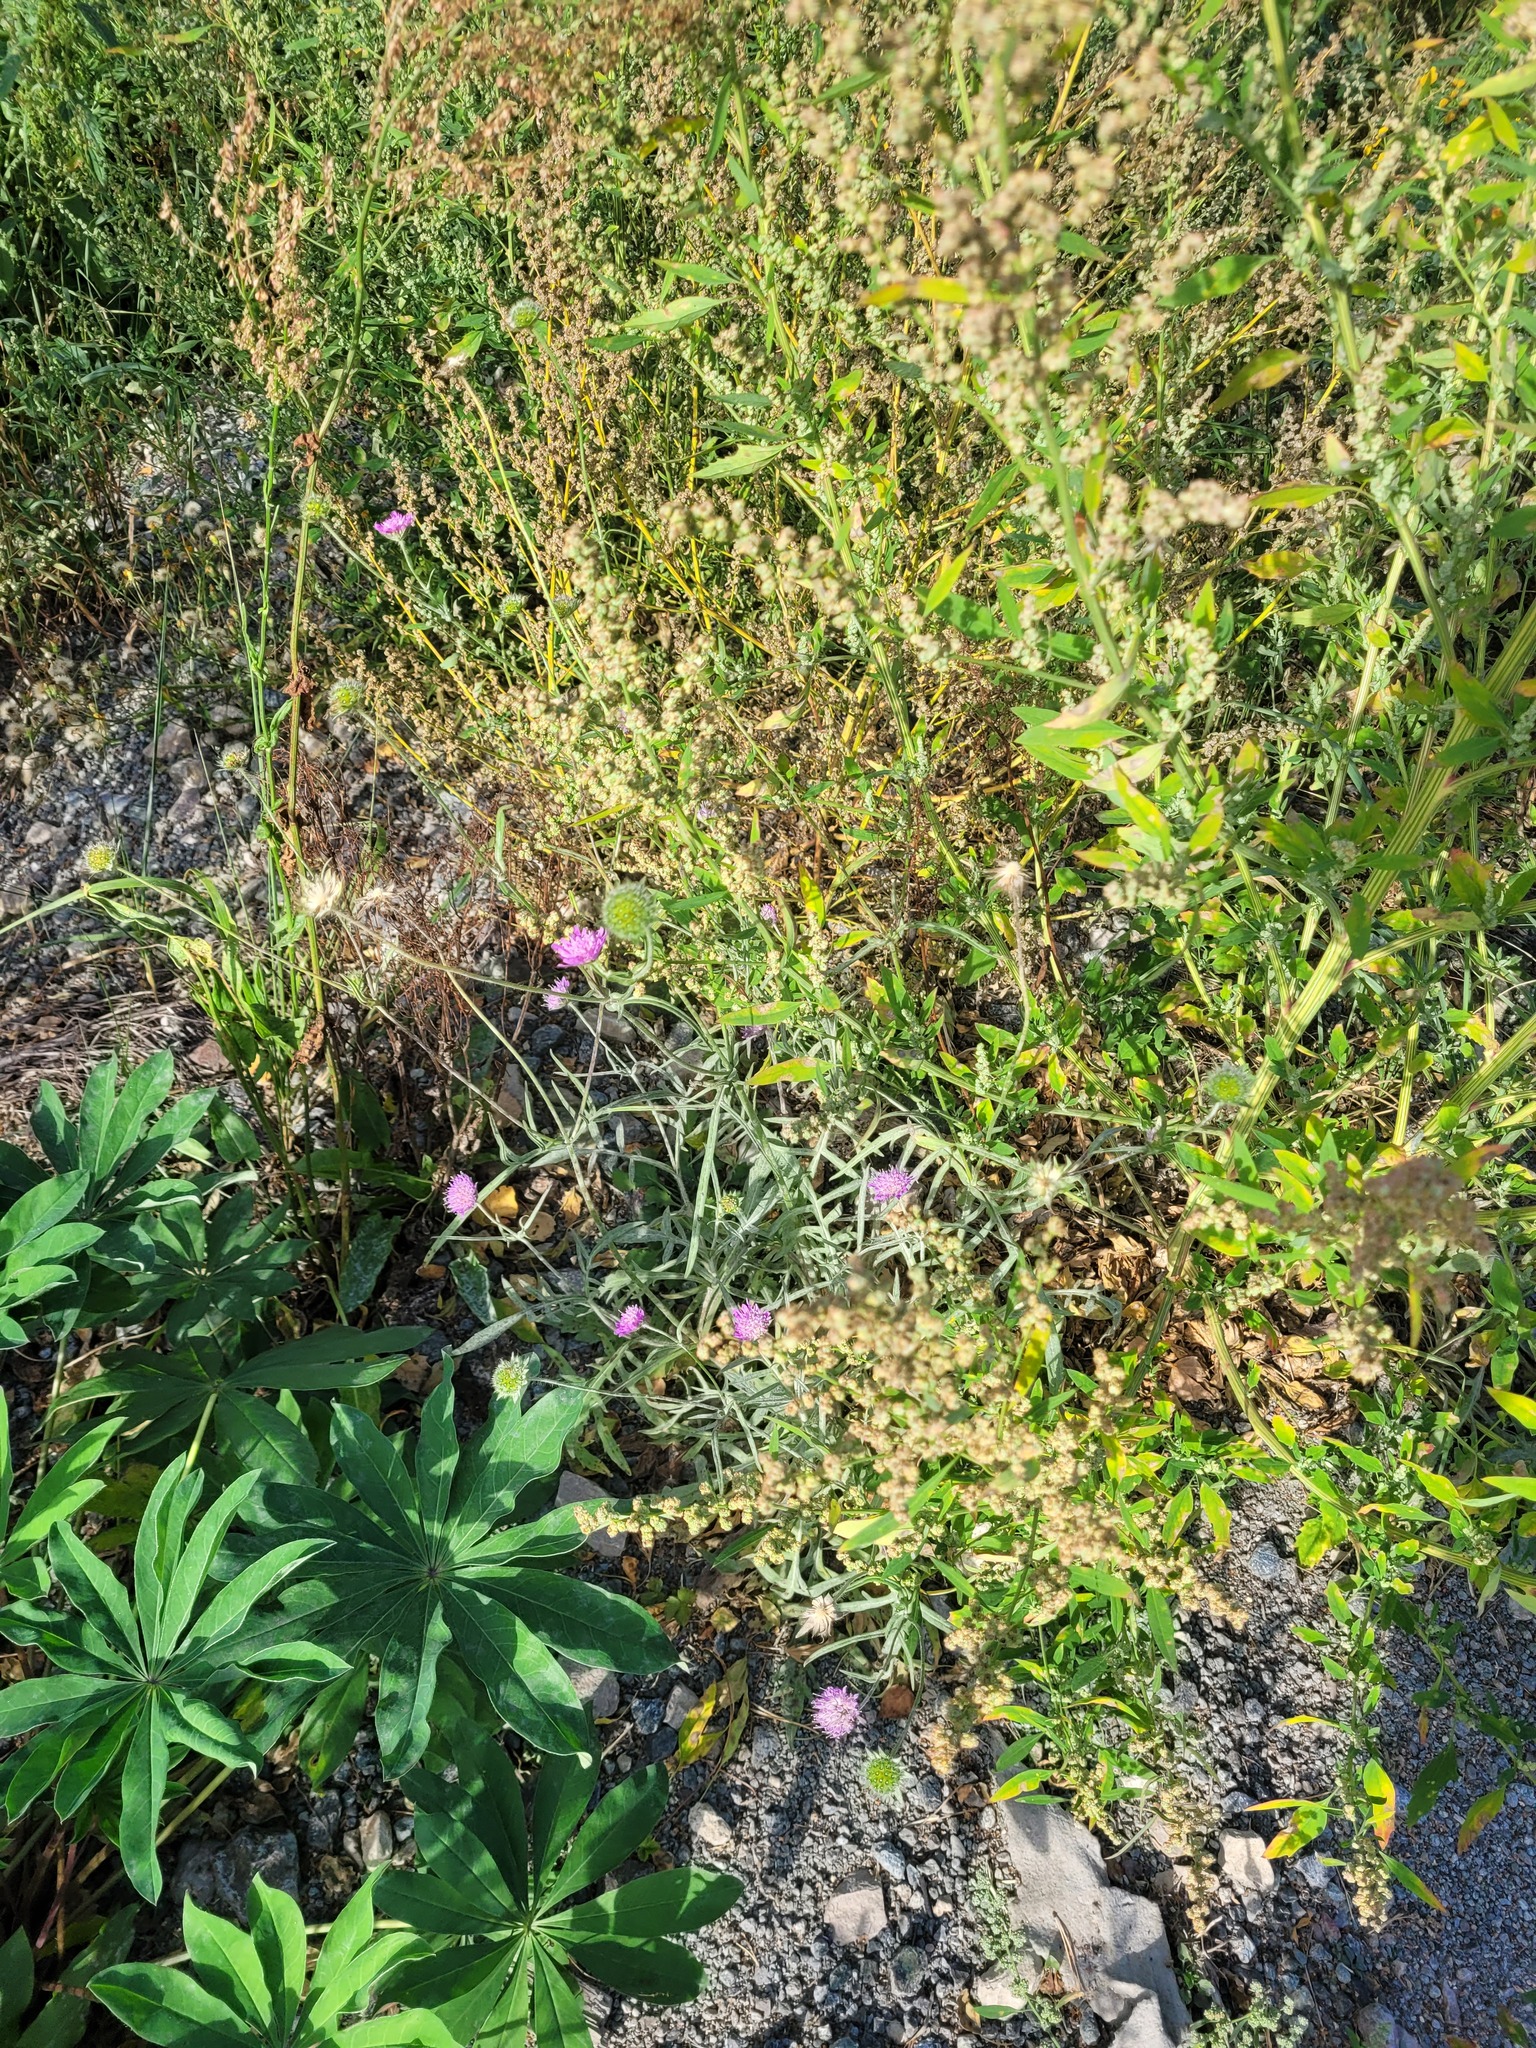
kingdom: Plantae
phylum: Tracheophyta
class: Magnoliopsida
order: Dipsacales
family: Caprifoliaceae
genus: Knautia
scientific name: Knautia arvensis
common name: Field scabiosa
